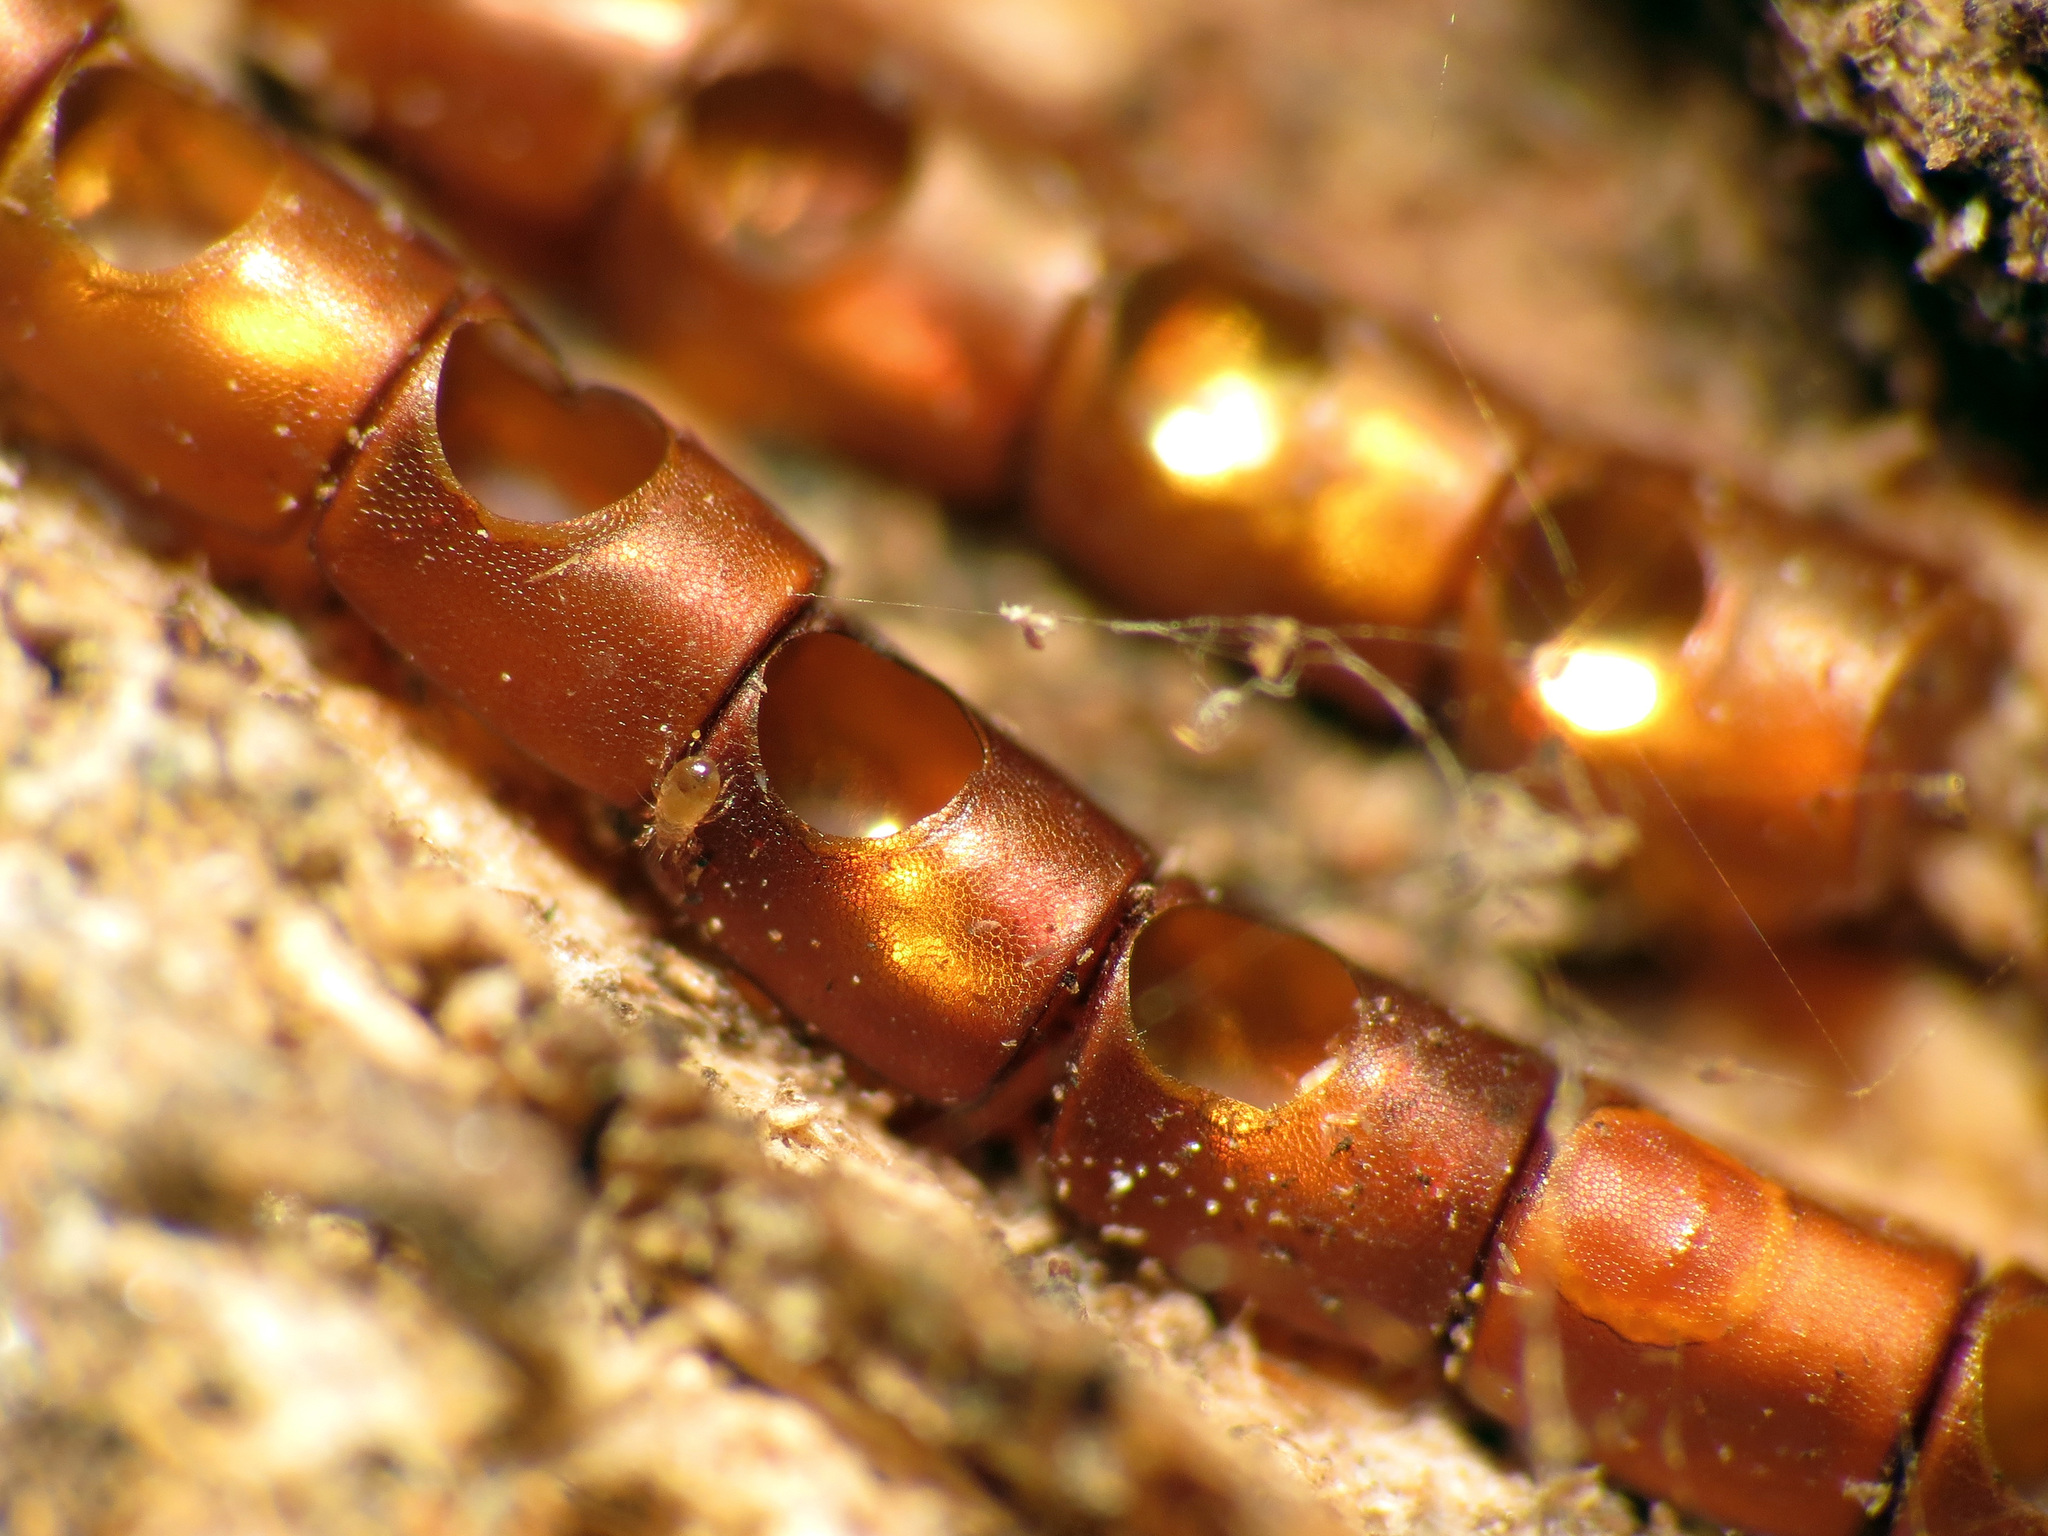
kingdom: Animalia
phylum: Arthropoda
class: Insecta
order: Hemiptera
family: Coreidae
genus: Leptoglossus
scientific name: Leptoglossus
